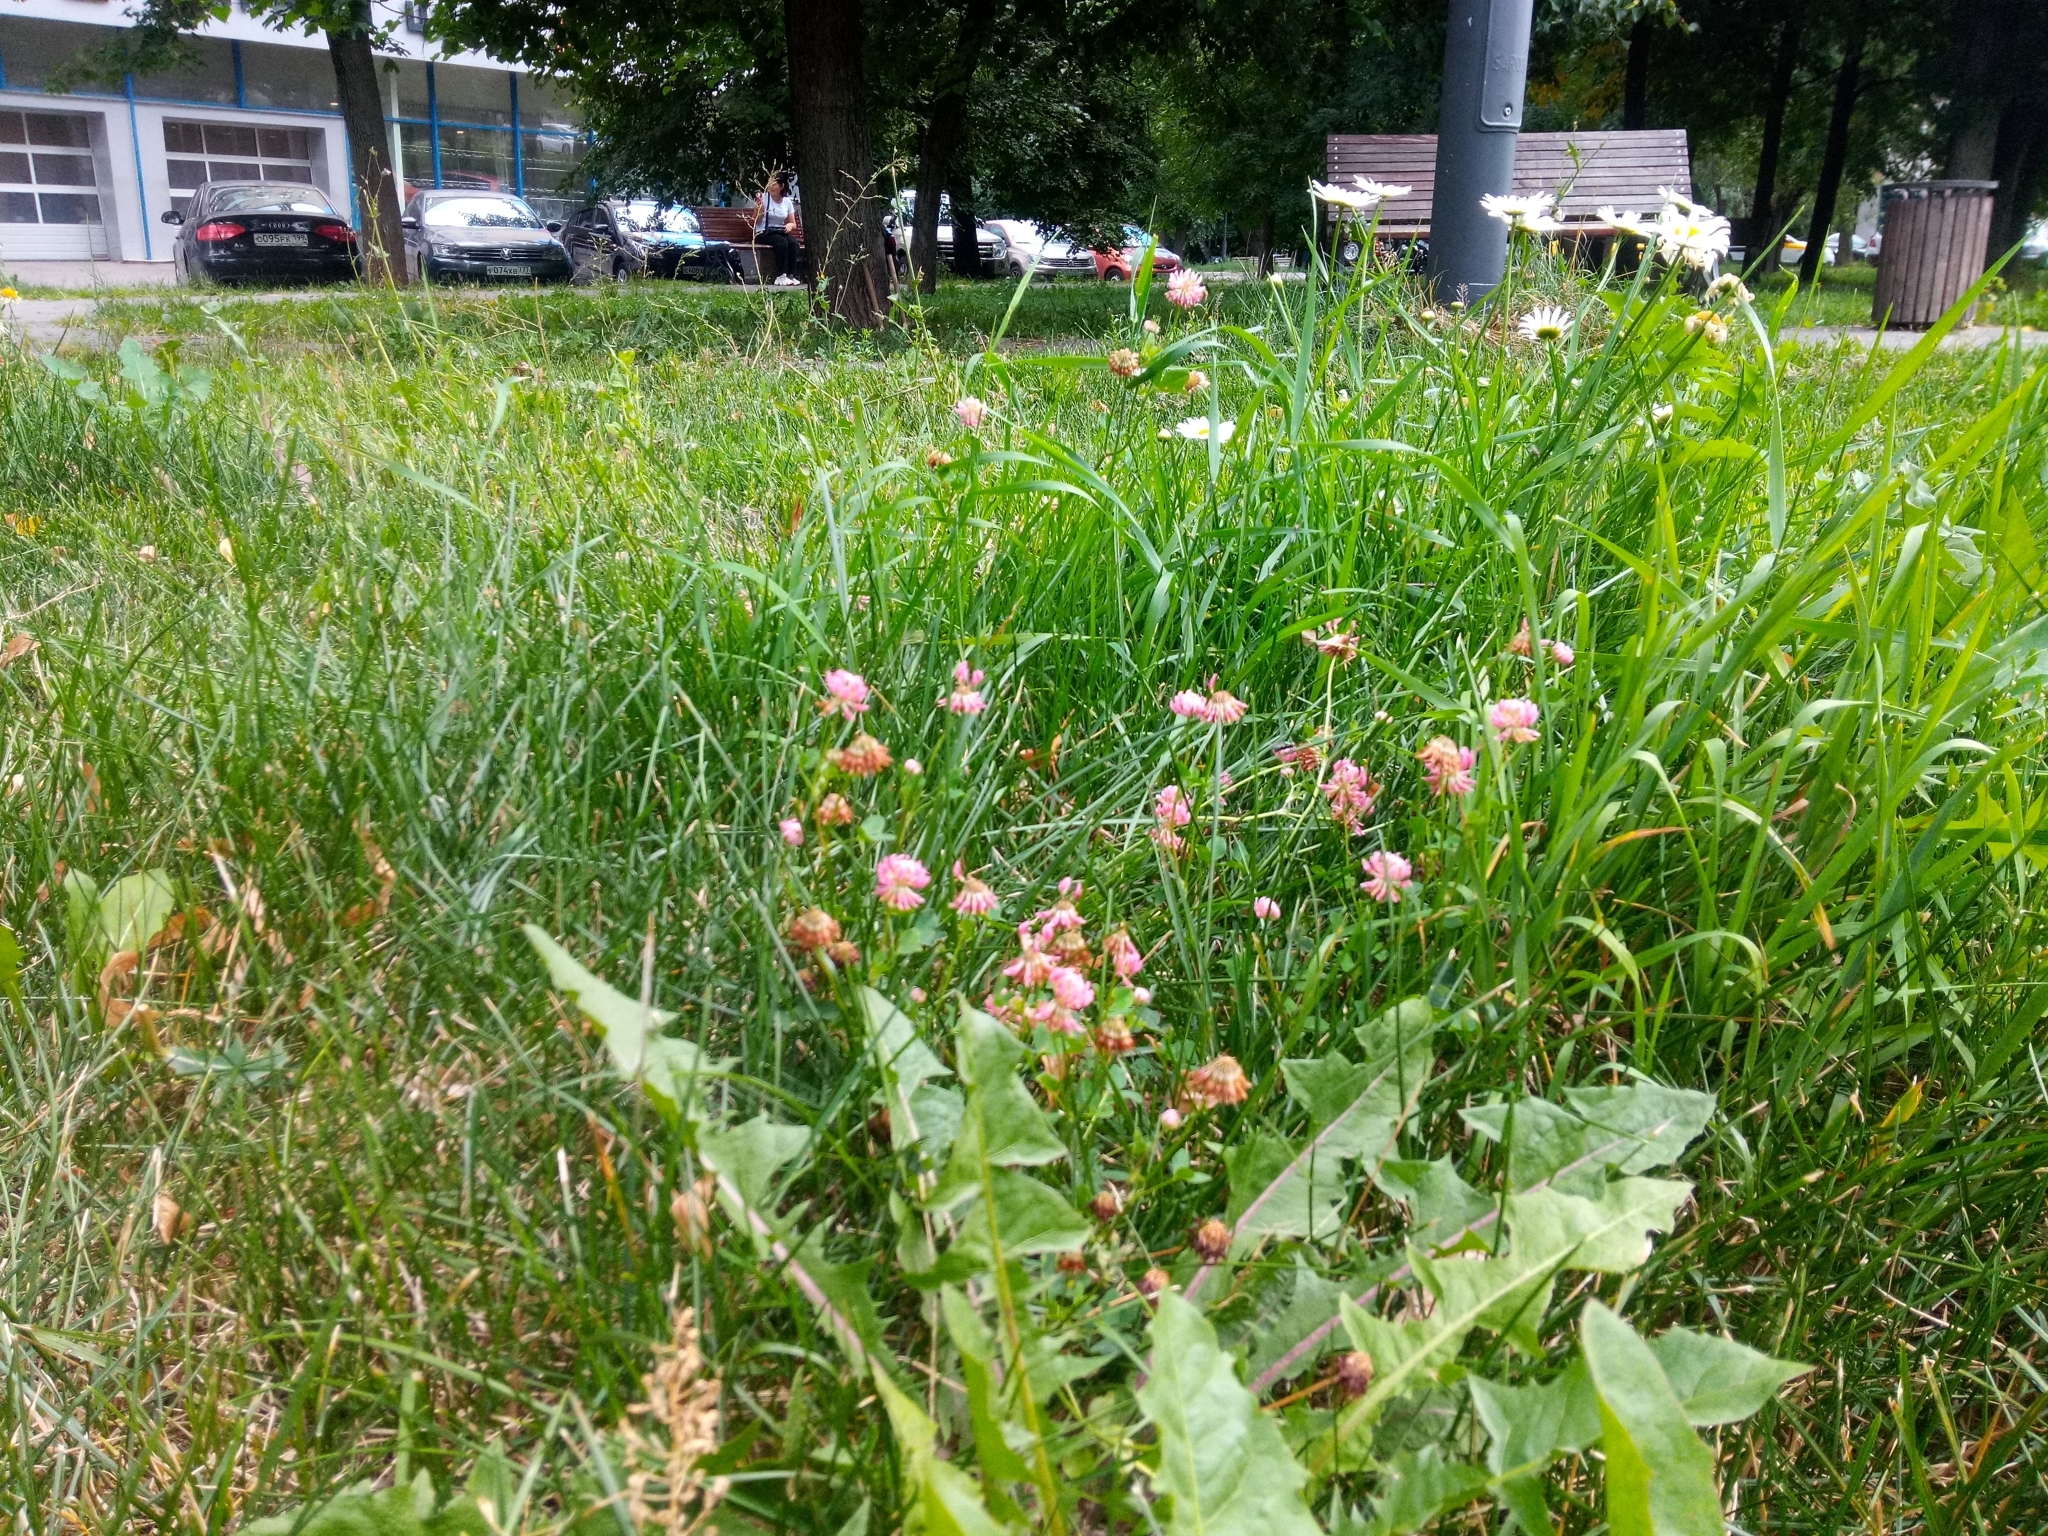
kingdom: Plantae
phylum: Tracheophyta
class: Magnoliopsida
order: Fabales
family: Fabaceae
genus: Trifolium
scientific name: Trifolium hybridum
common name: Alsike clover
